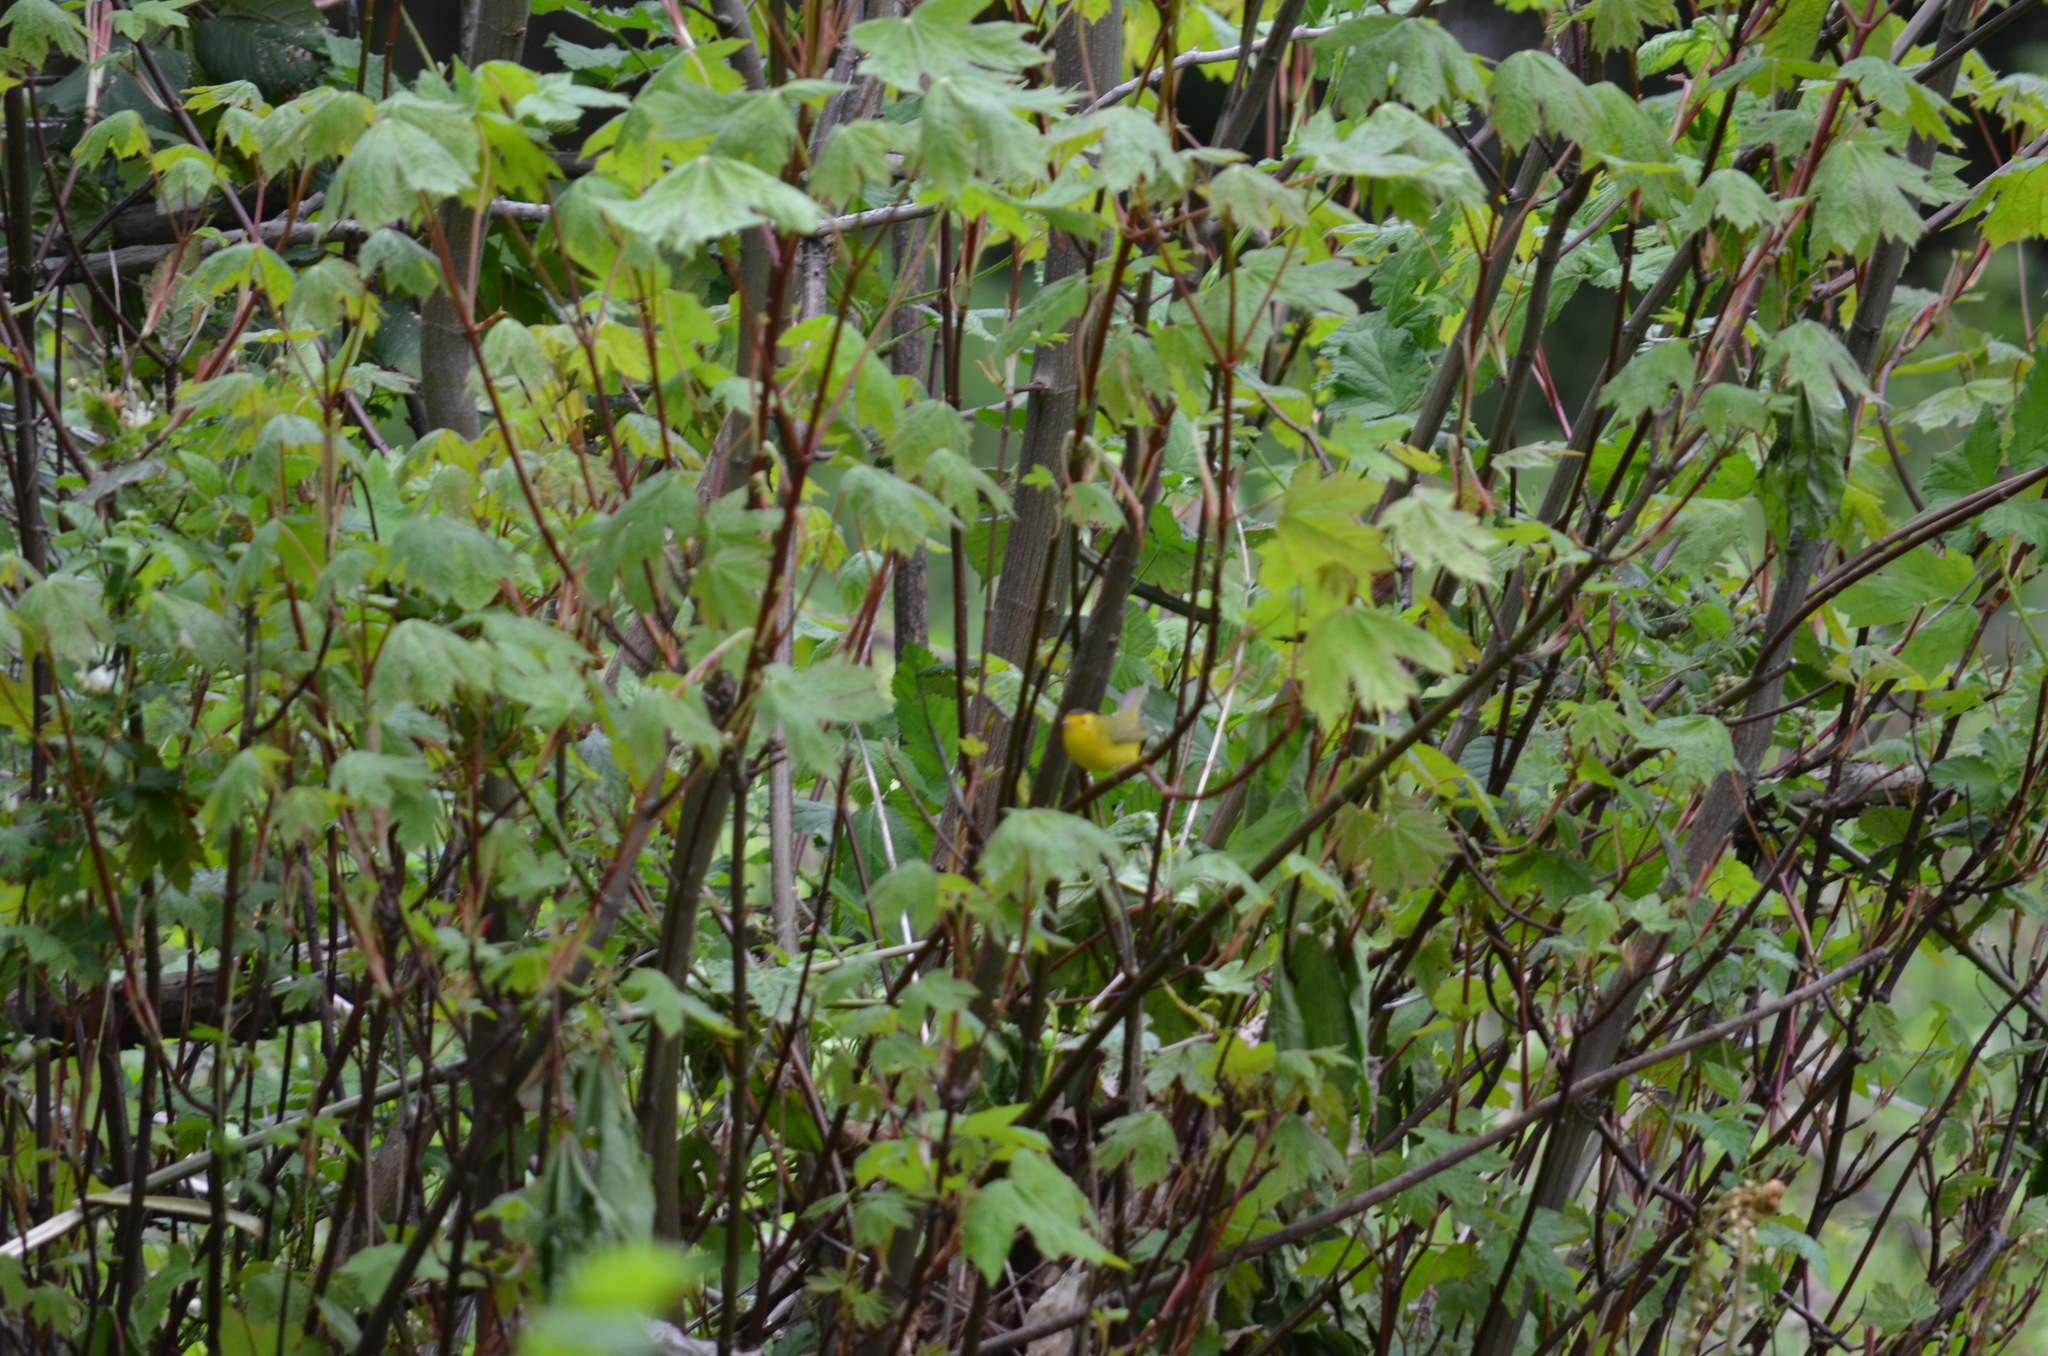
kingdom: Animalia
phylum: Chordata
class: Aves
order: Passeriformes
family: Parulidae
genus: Cardellina
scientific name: Cardellina pusilla
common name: Wilson's warbler
